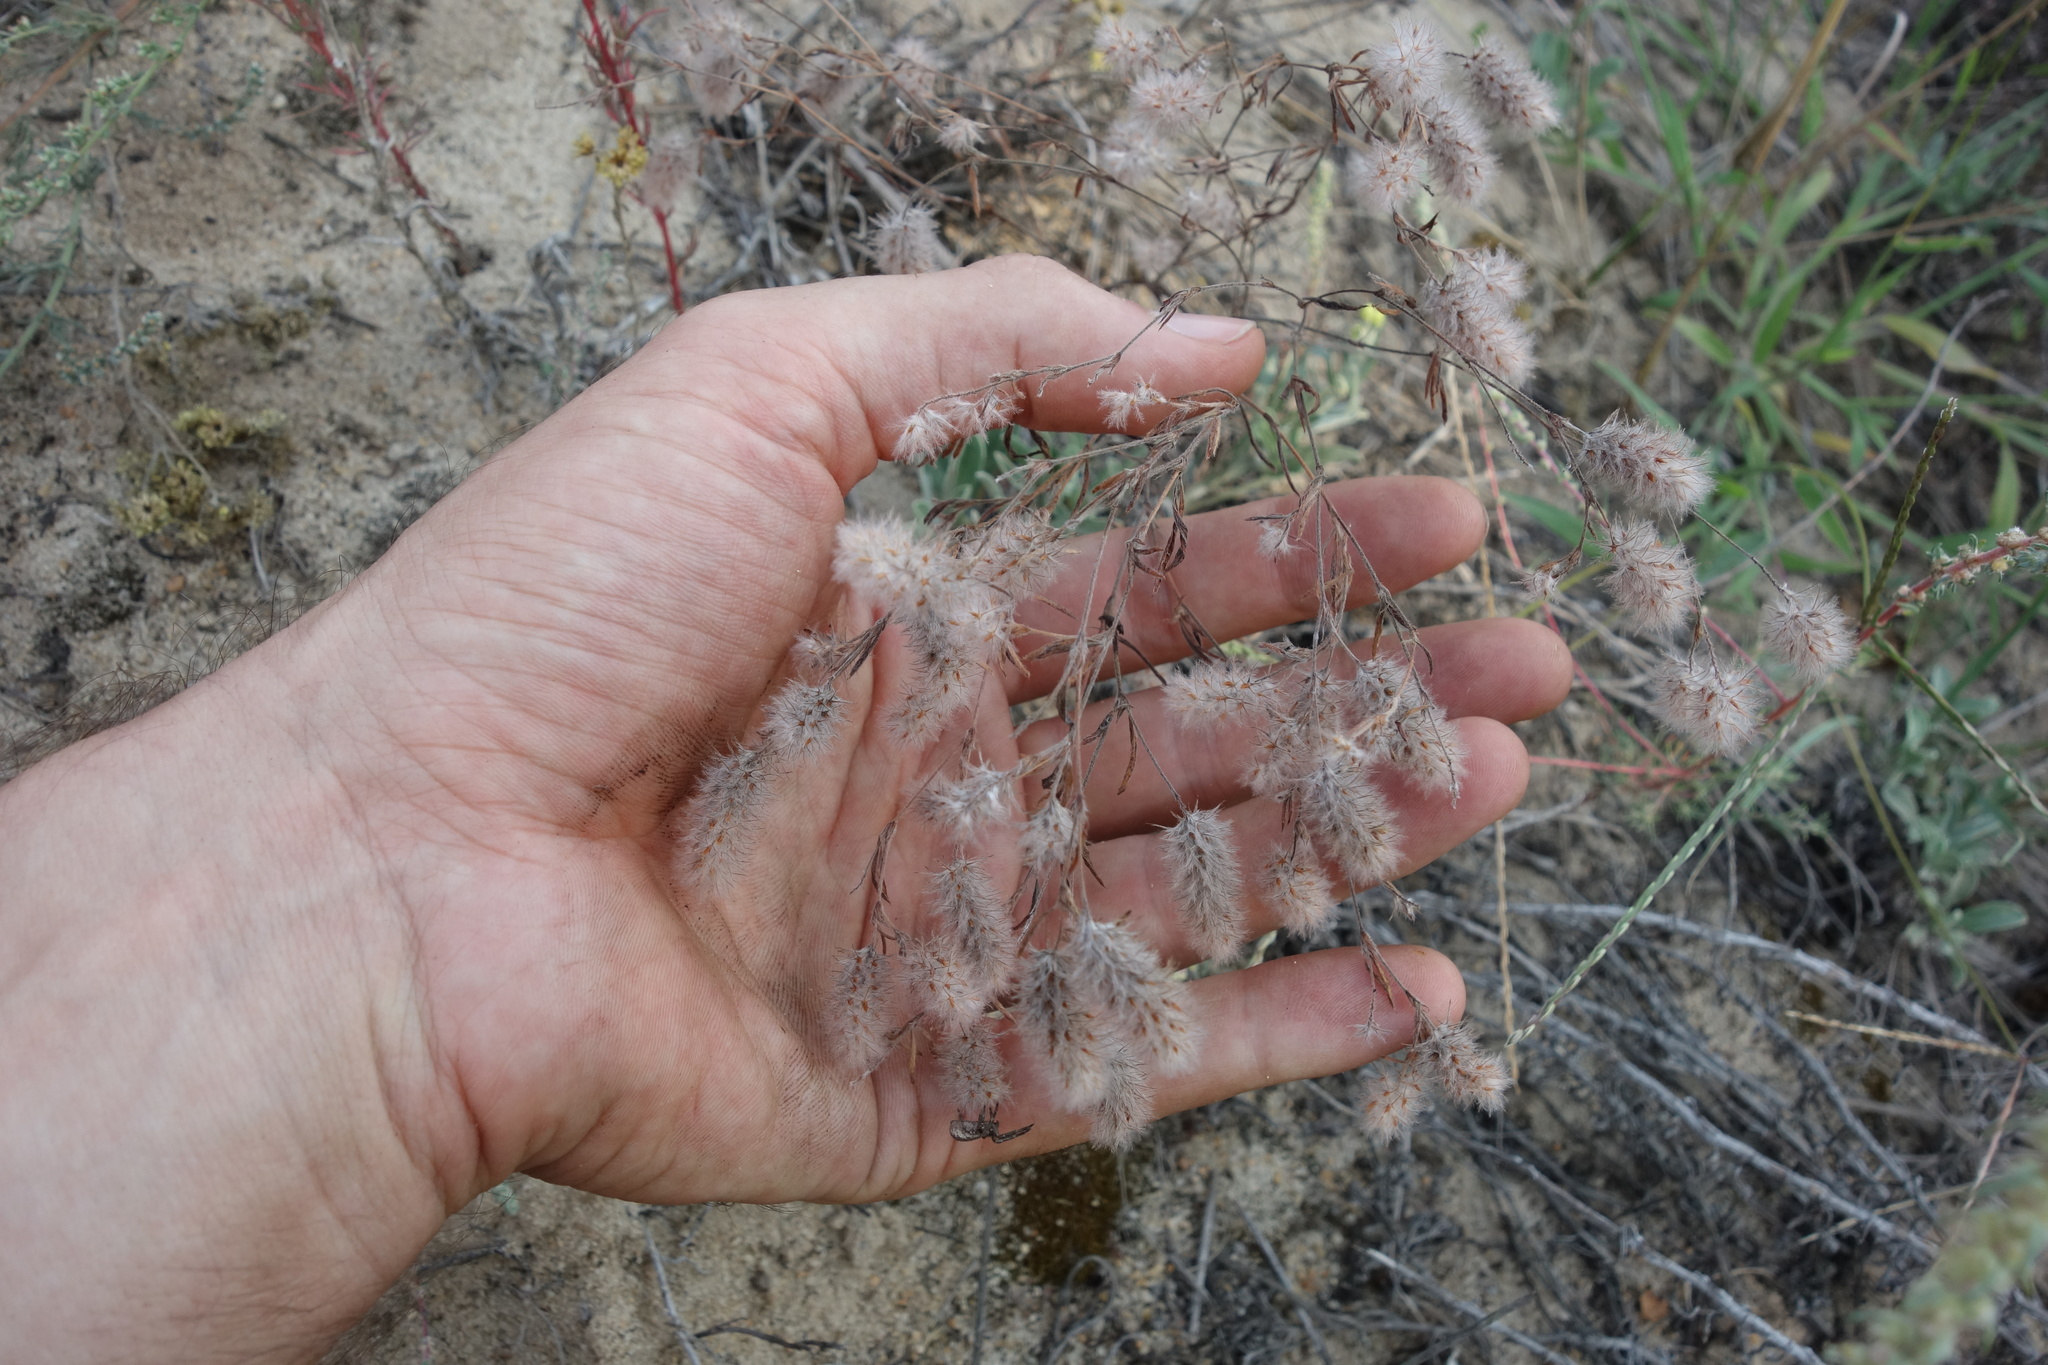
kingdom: Plantae
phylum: Tracheophyta
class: Magnoliopsida
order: Fabales
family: Fabaceae
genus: Trifolium
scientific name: Trifolium arvense
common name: Hare's-foot clover
